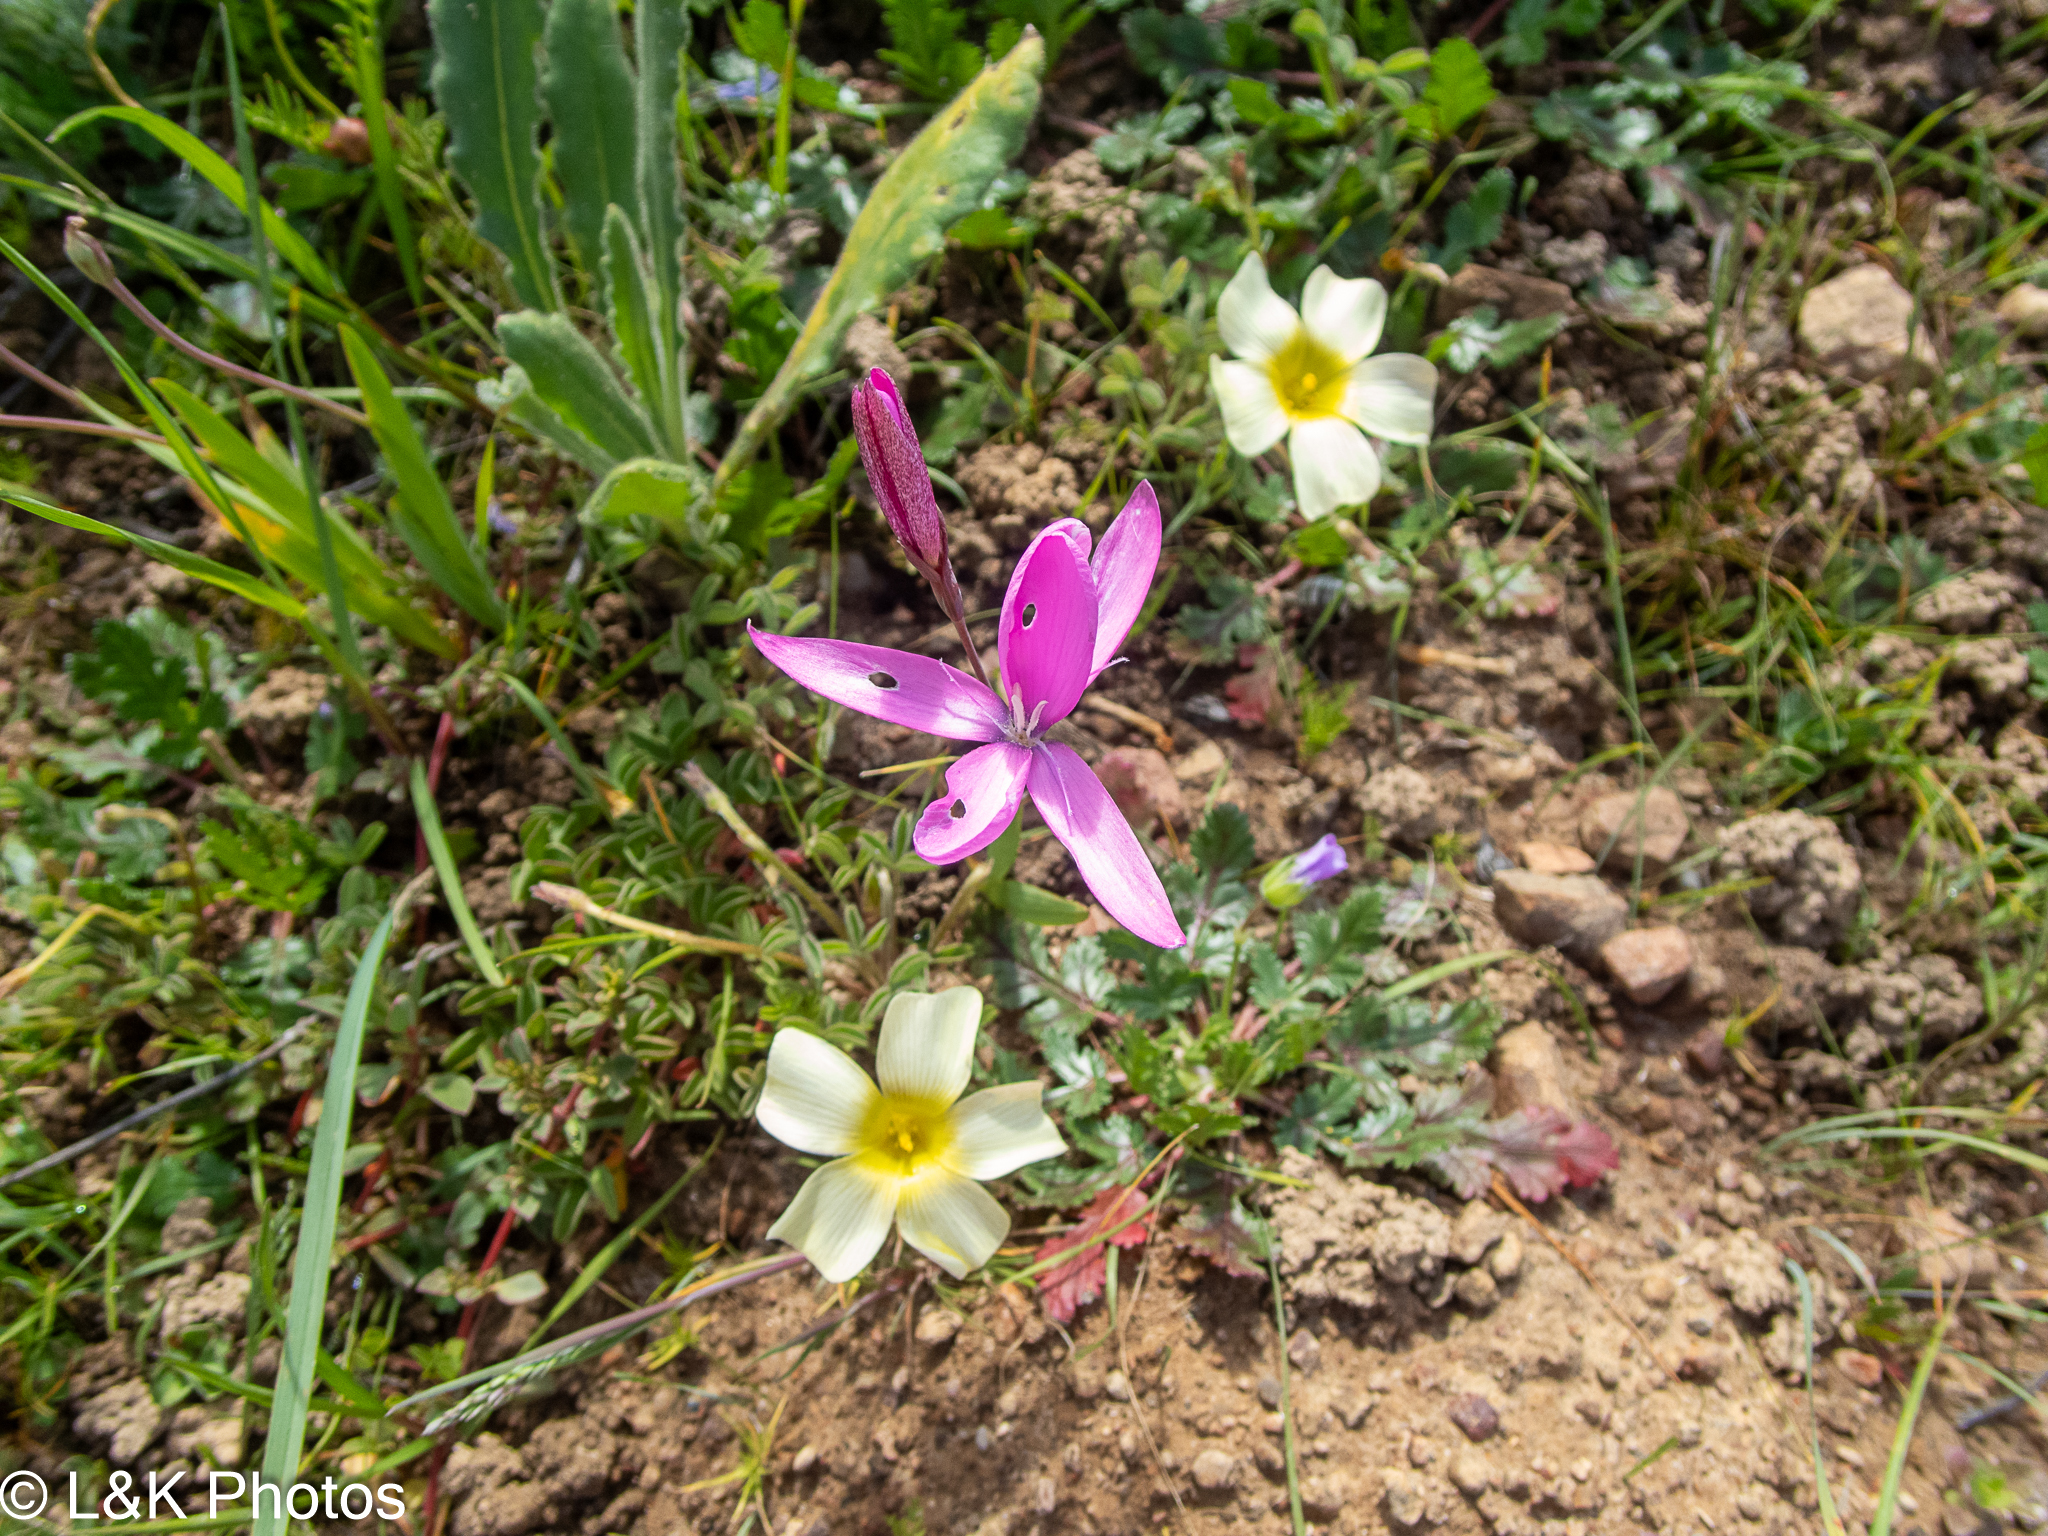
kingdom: Plantae
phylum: Tracheophyta
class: Liliopsida
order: Asparagales
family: Iridaceae
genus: Hesperantha
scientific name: Hesperantha pauciflora
